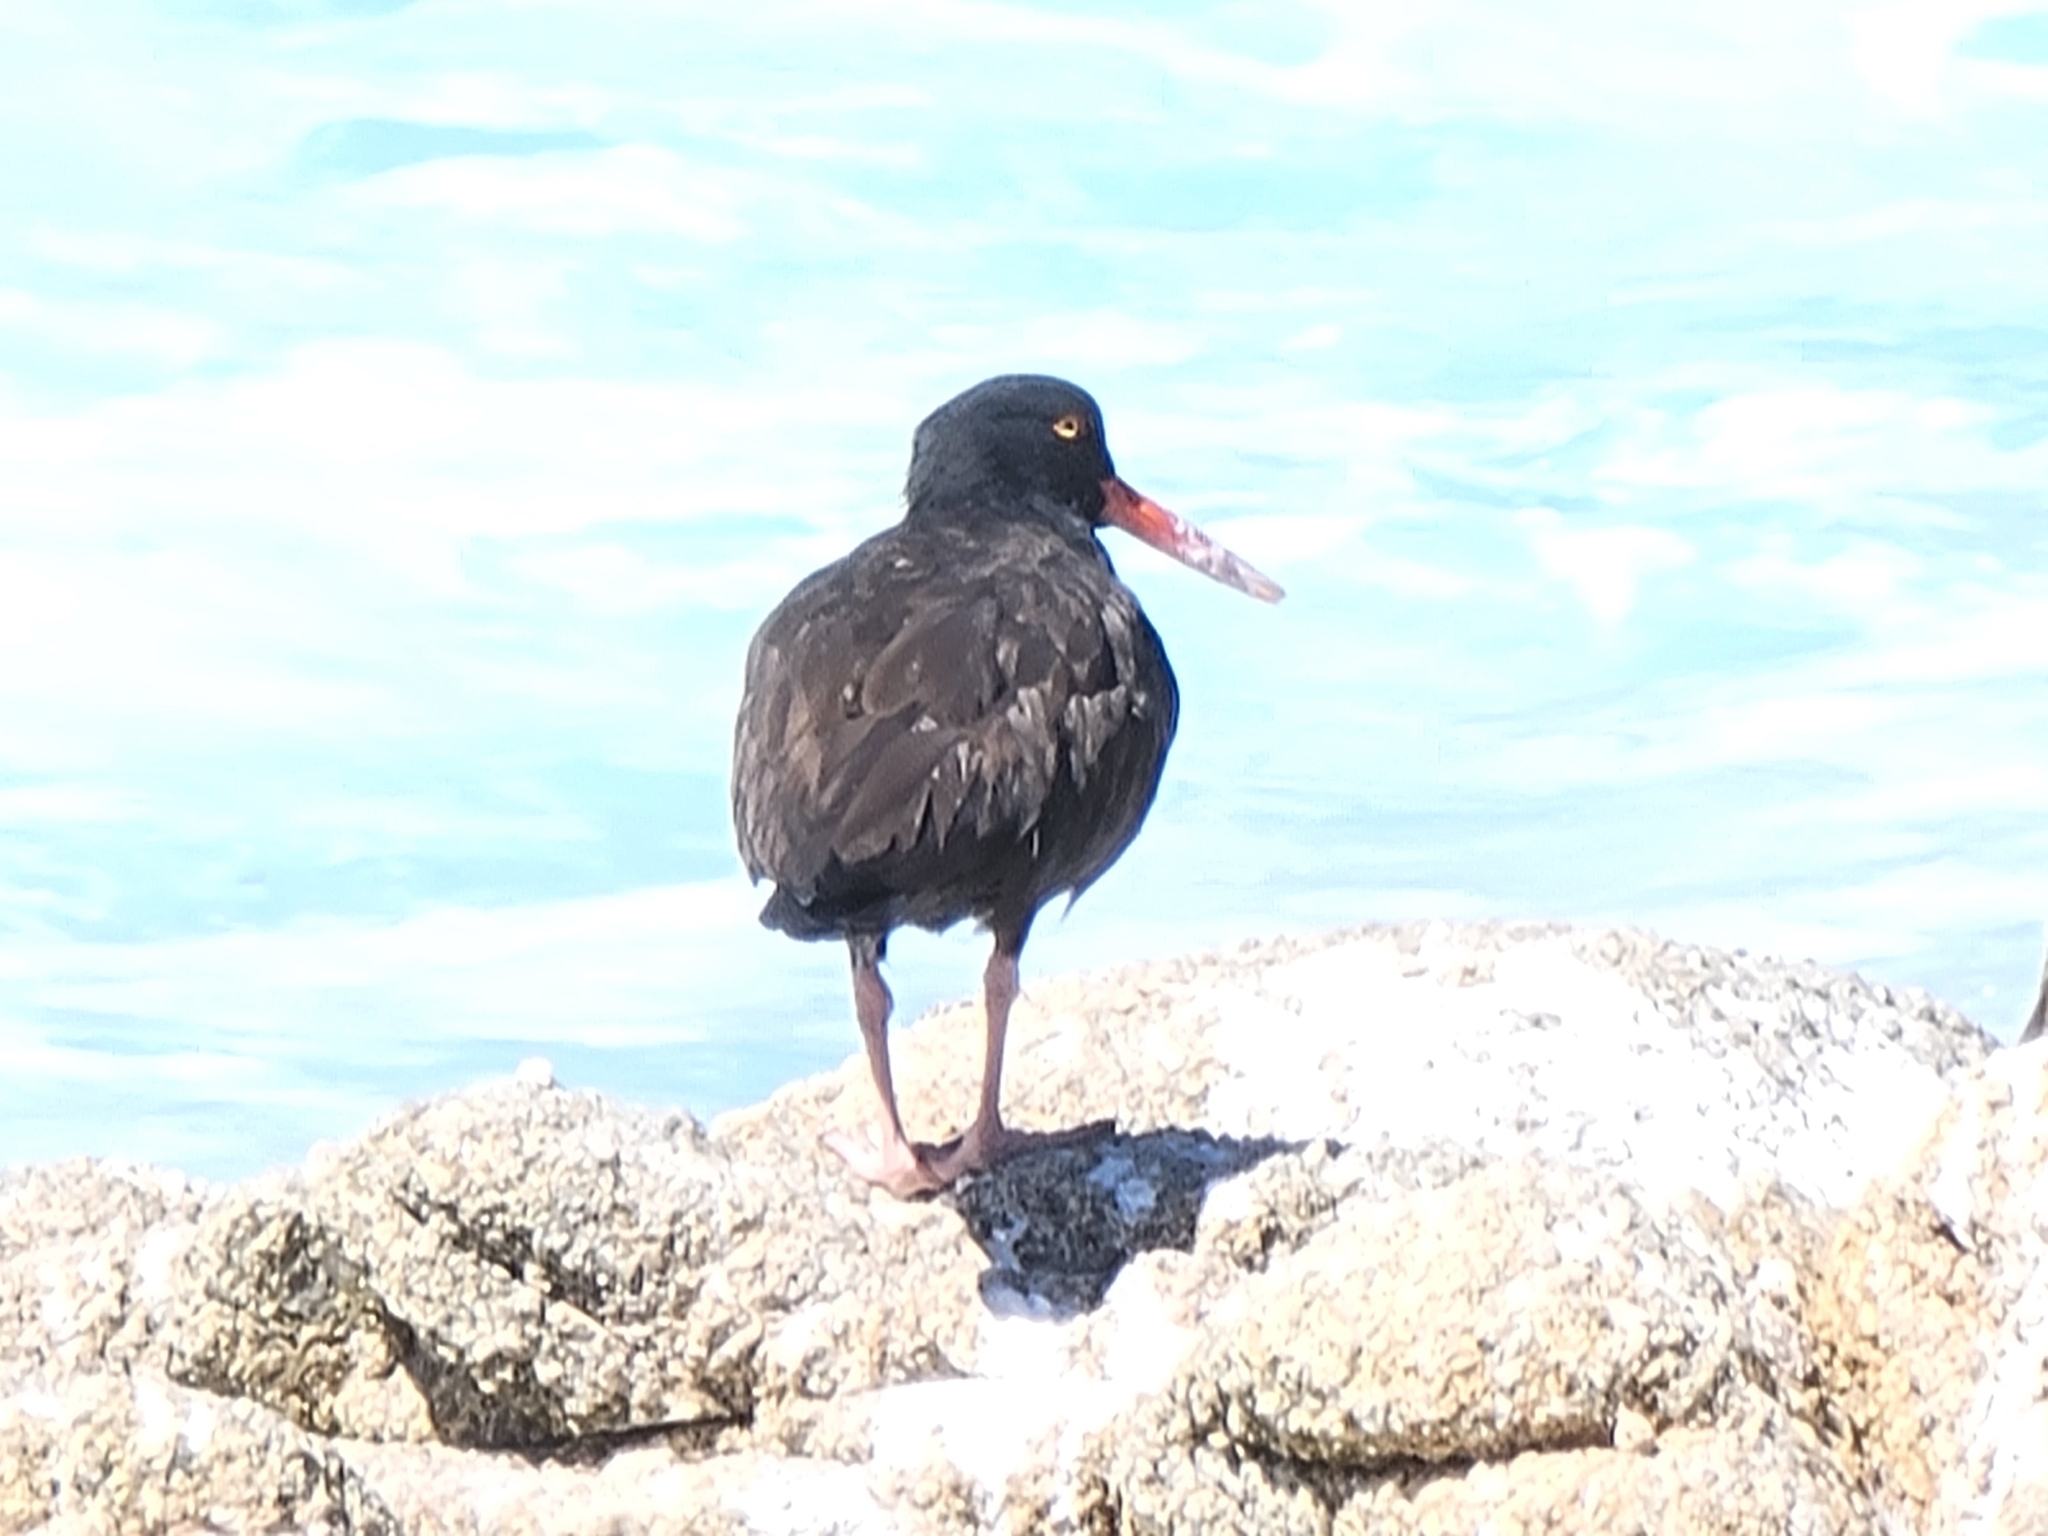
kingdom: Animalia
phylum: Chordata
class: Aves
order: Charadriiformes
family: Haematopodidae
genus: Haematopus
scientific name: Haematopus bachmani
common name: Black oystercatcher
